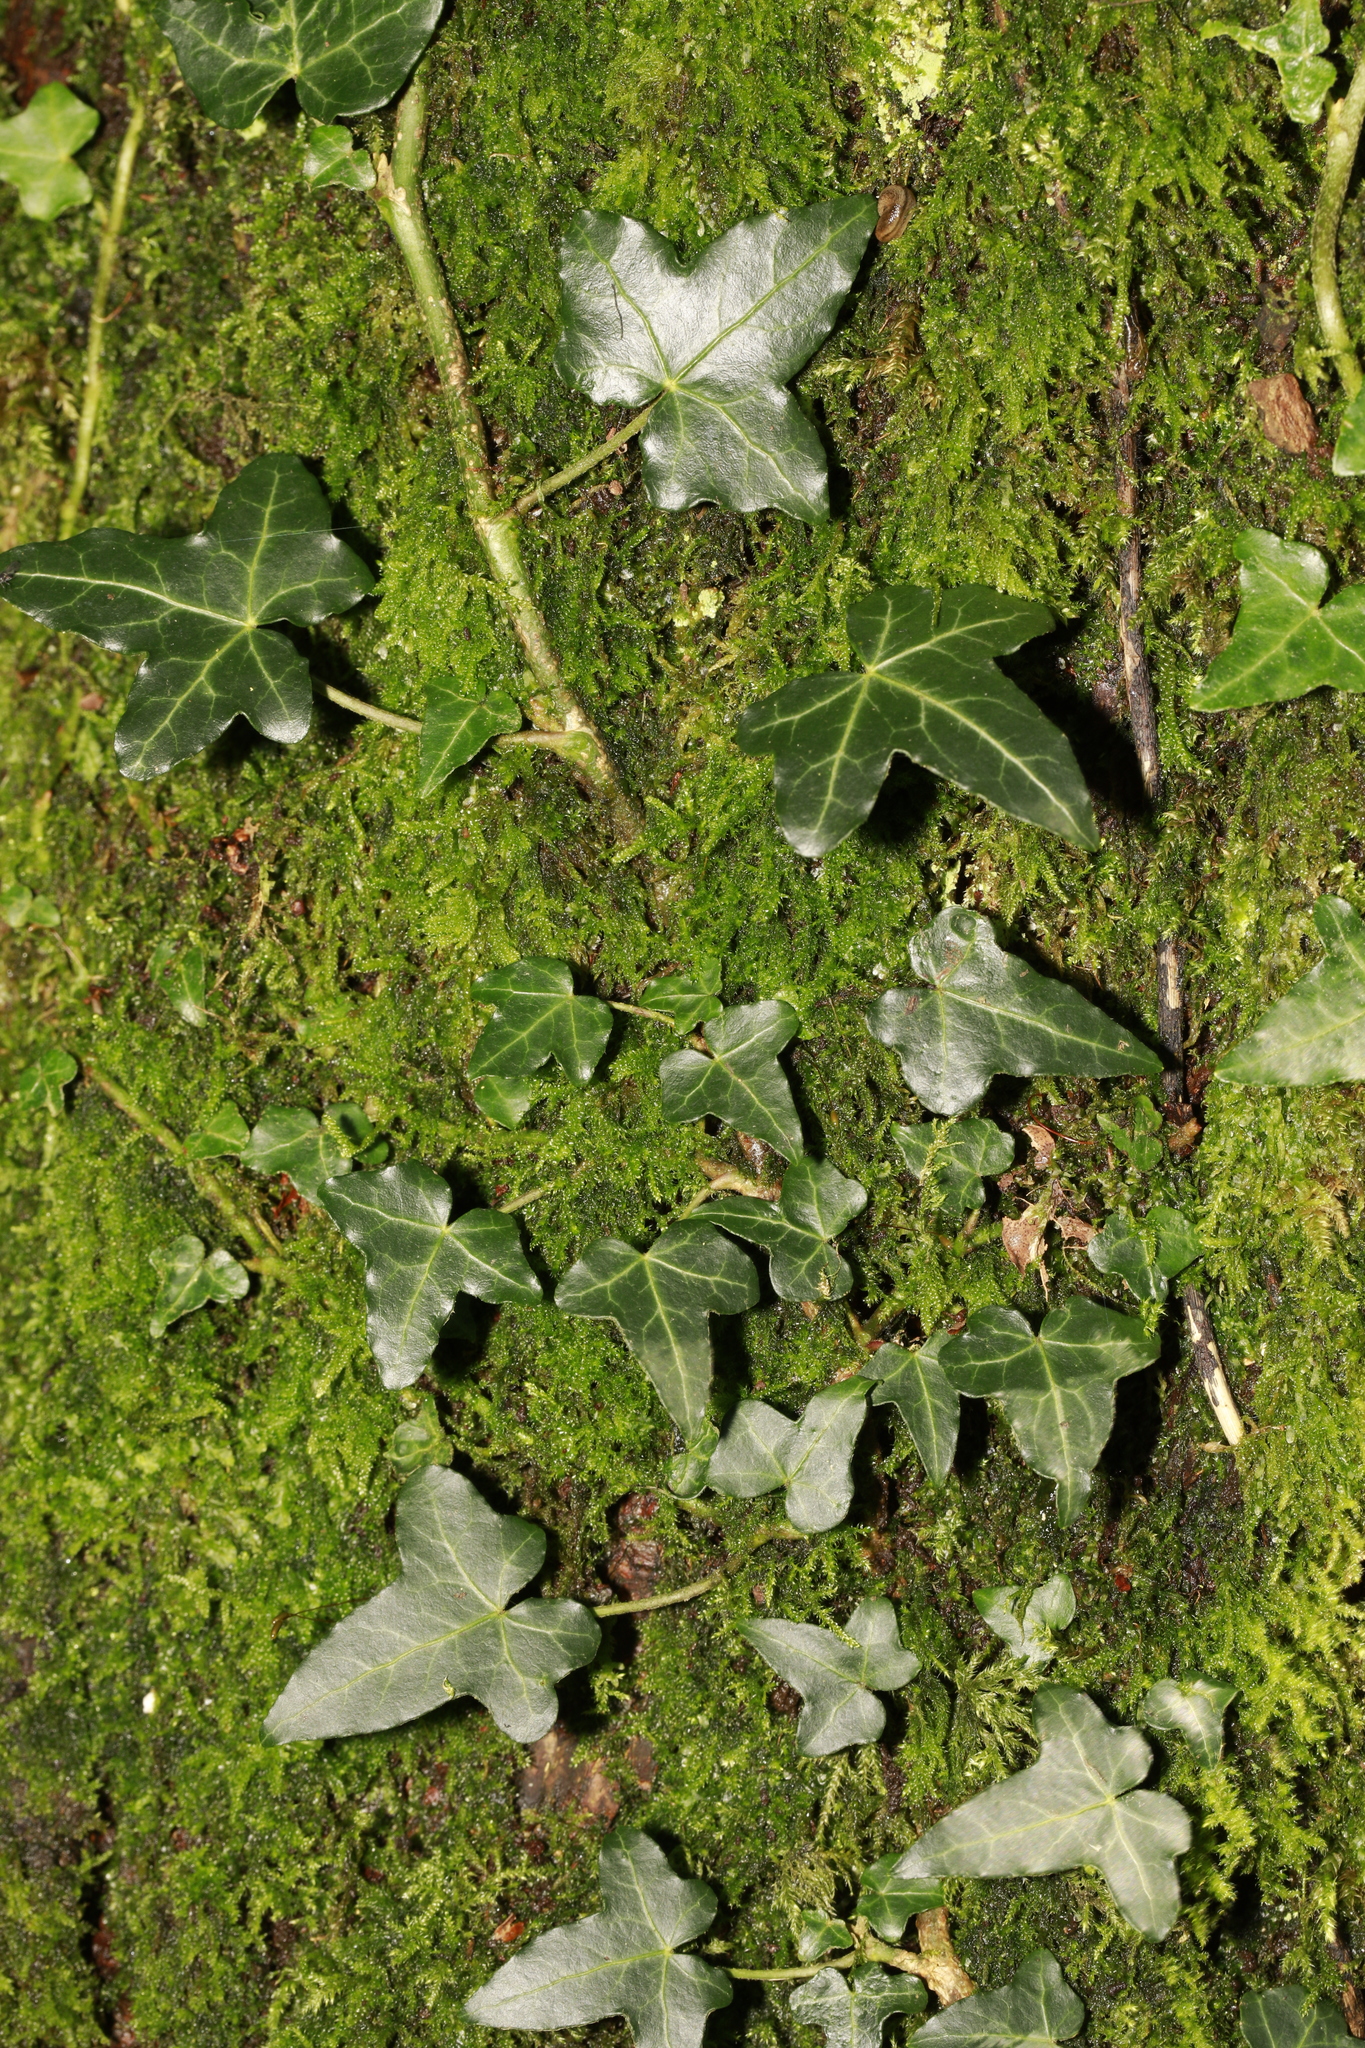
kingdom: Plantae
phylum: Tracheophyta
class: Magnoliopsida
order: Apiales
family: Araliaceae
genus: Hedera
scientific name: Hedera helix
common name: Ivy
